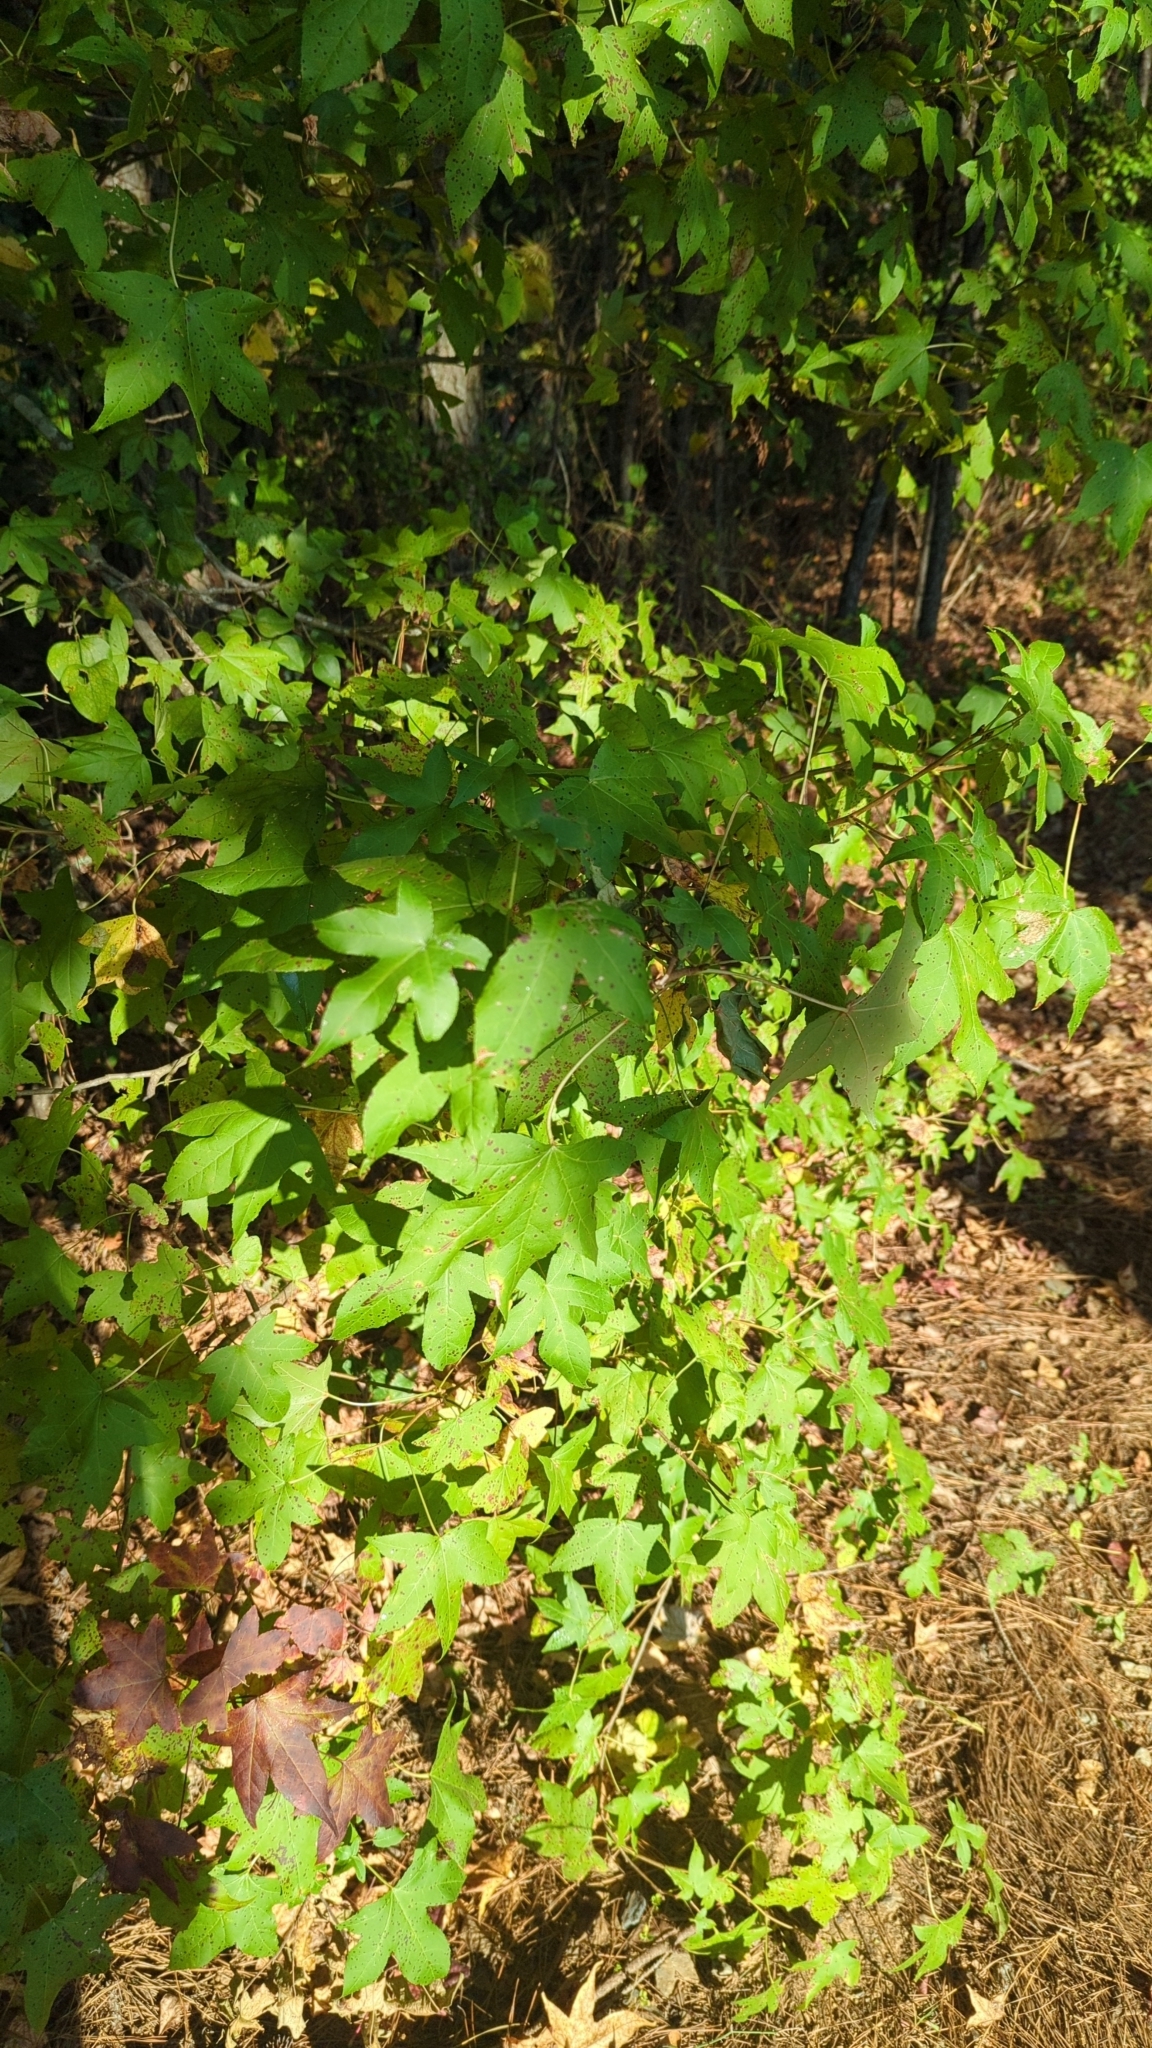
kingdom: Plantae
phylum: Tracheophyta
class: Magnoliopsida
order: Saxifragales
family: Altingiaceae
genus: Liquidambar
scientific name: Liquidambar styraciflua
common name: Sweet gum
